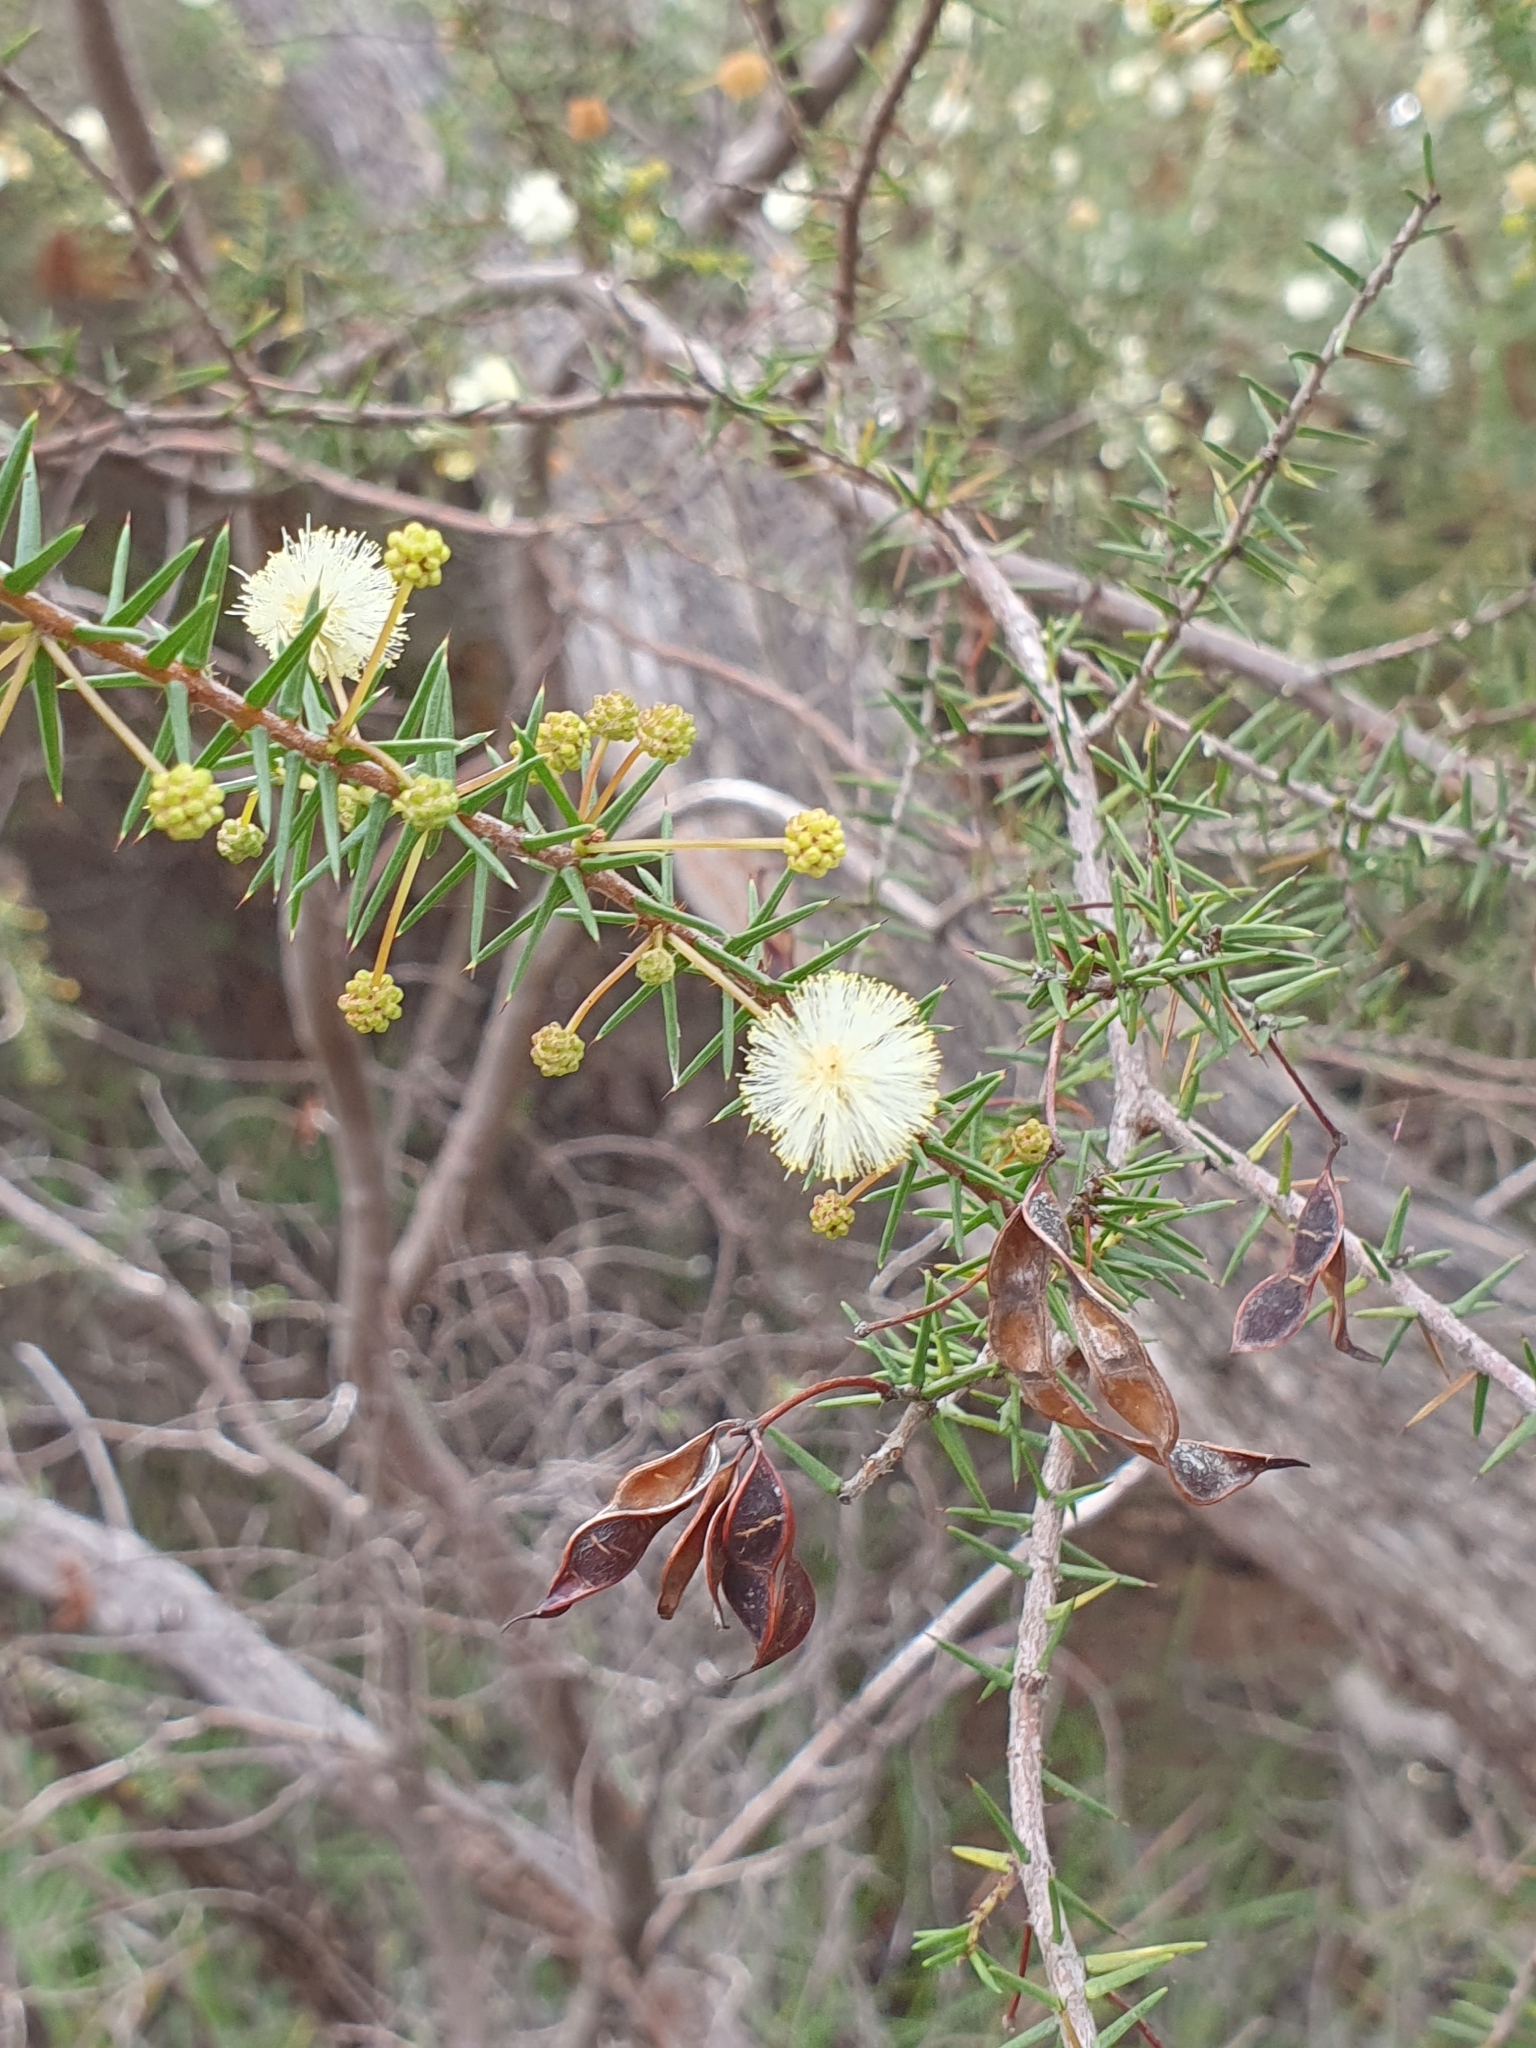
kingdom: Plantae
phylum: Tracheophyta
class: Magnoliopsida
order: Fabales
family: Fabaceae
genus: Acacia
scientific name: Acacia ulicifolia
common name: Juniper wattle
